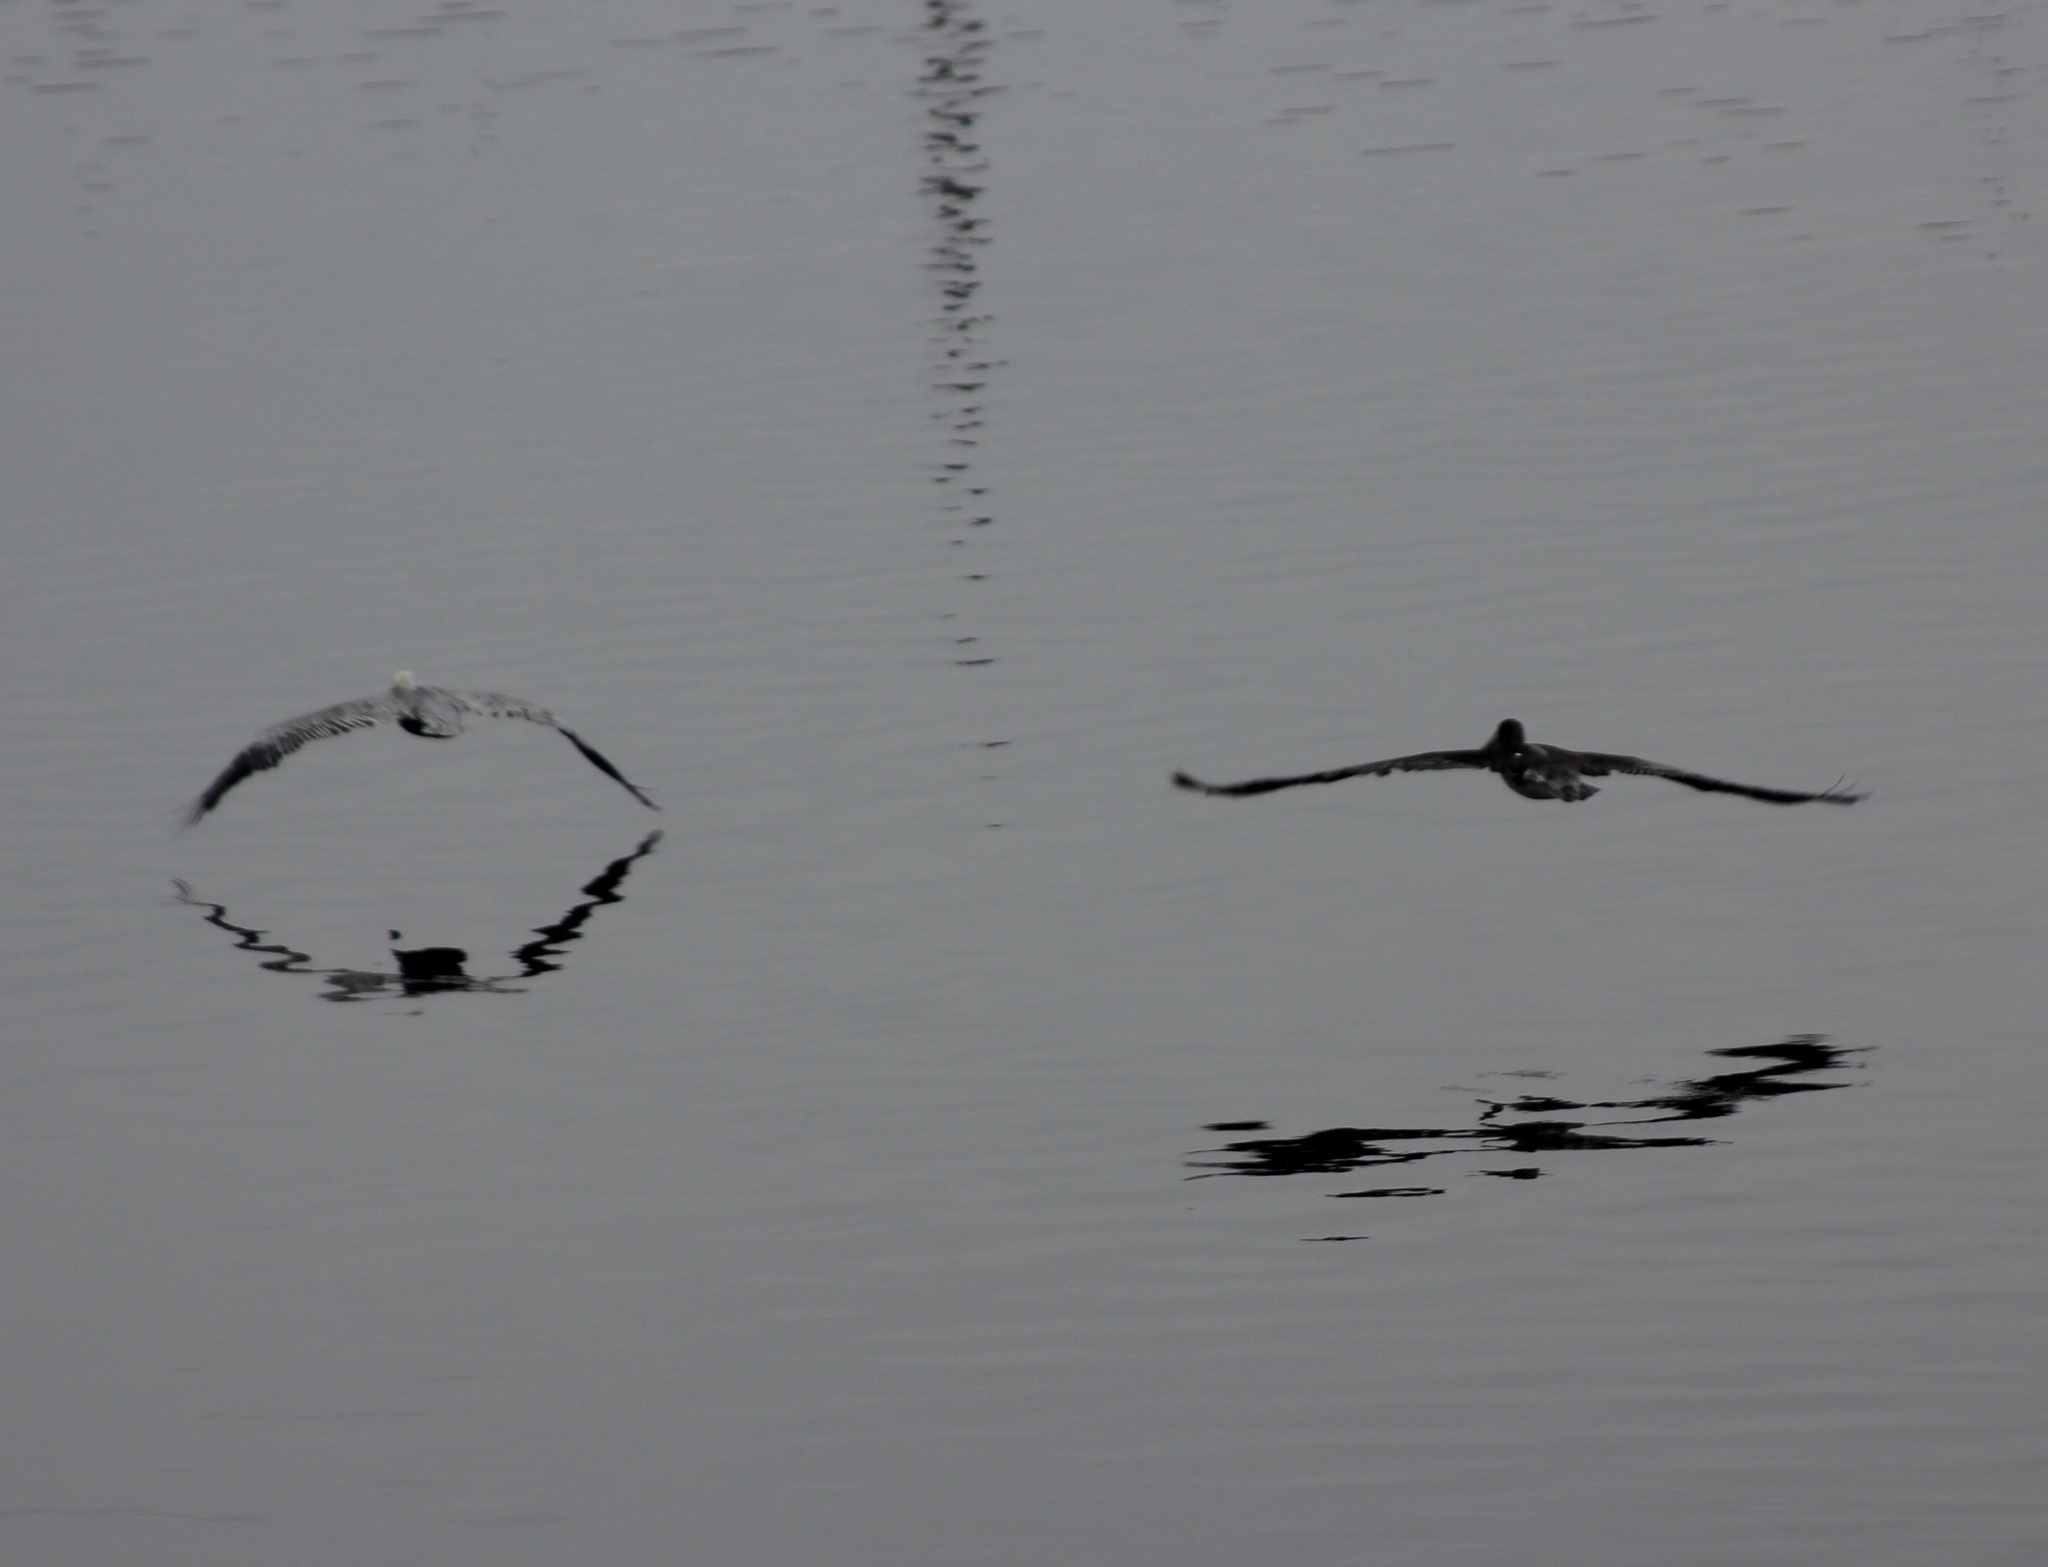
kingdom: Animalia
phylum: Chordata
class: Aves
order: Pelecaniformes
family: Pelecanidae
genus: Pelecanus
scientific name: Pelecanus occidentalis
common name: Brown pelican
